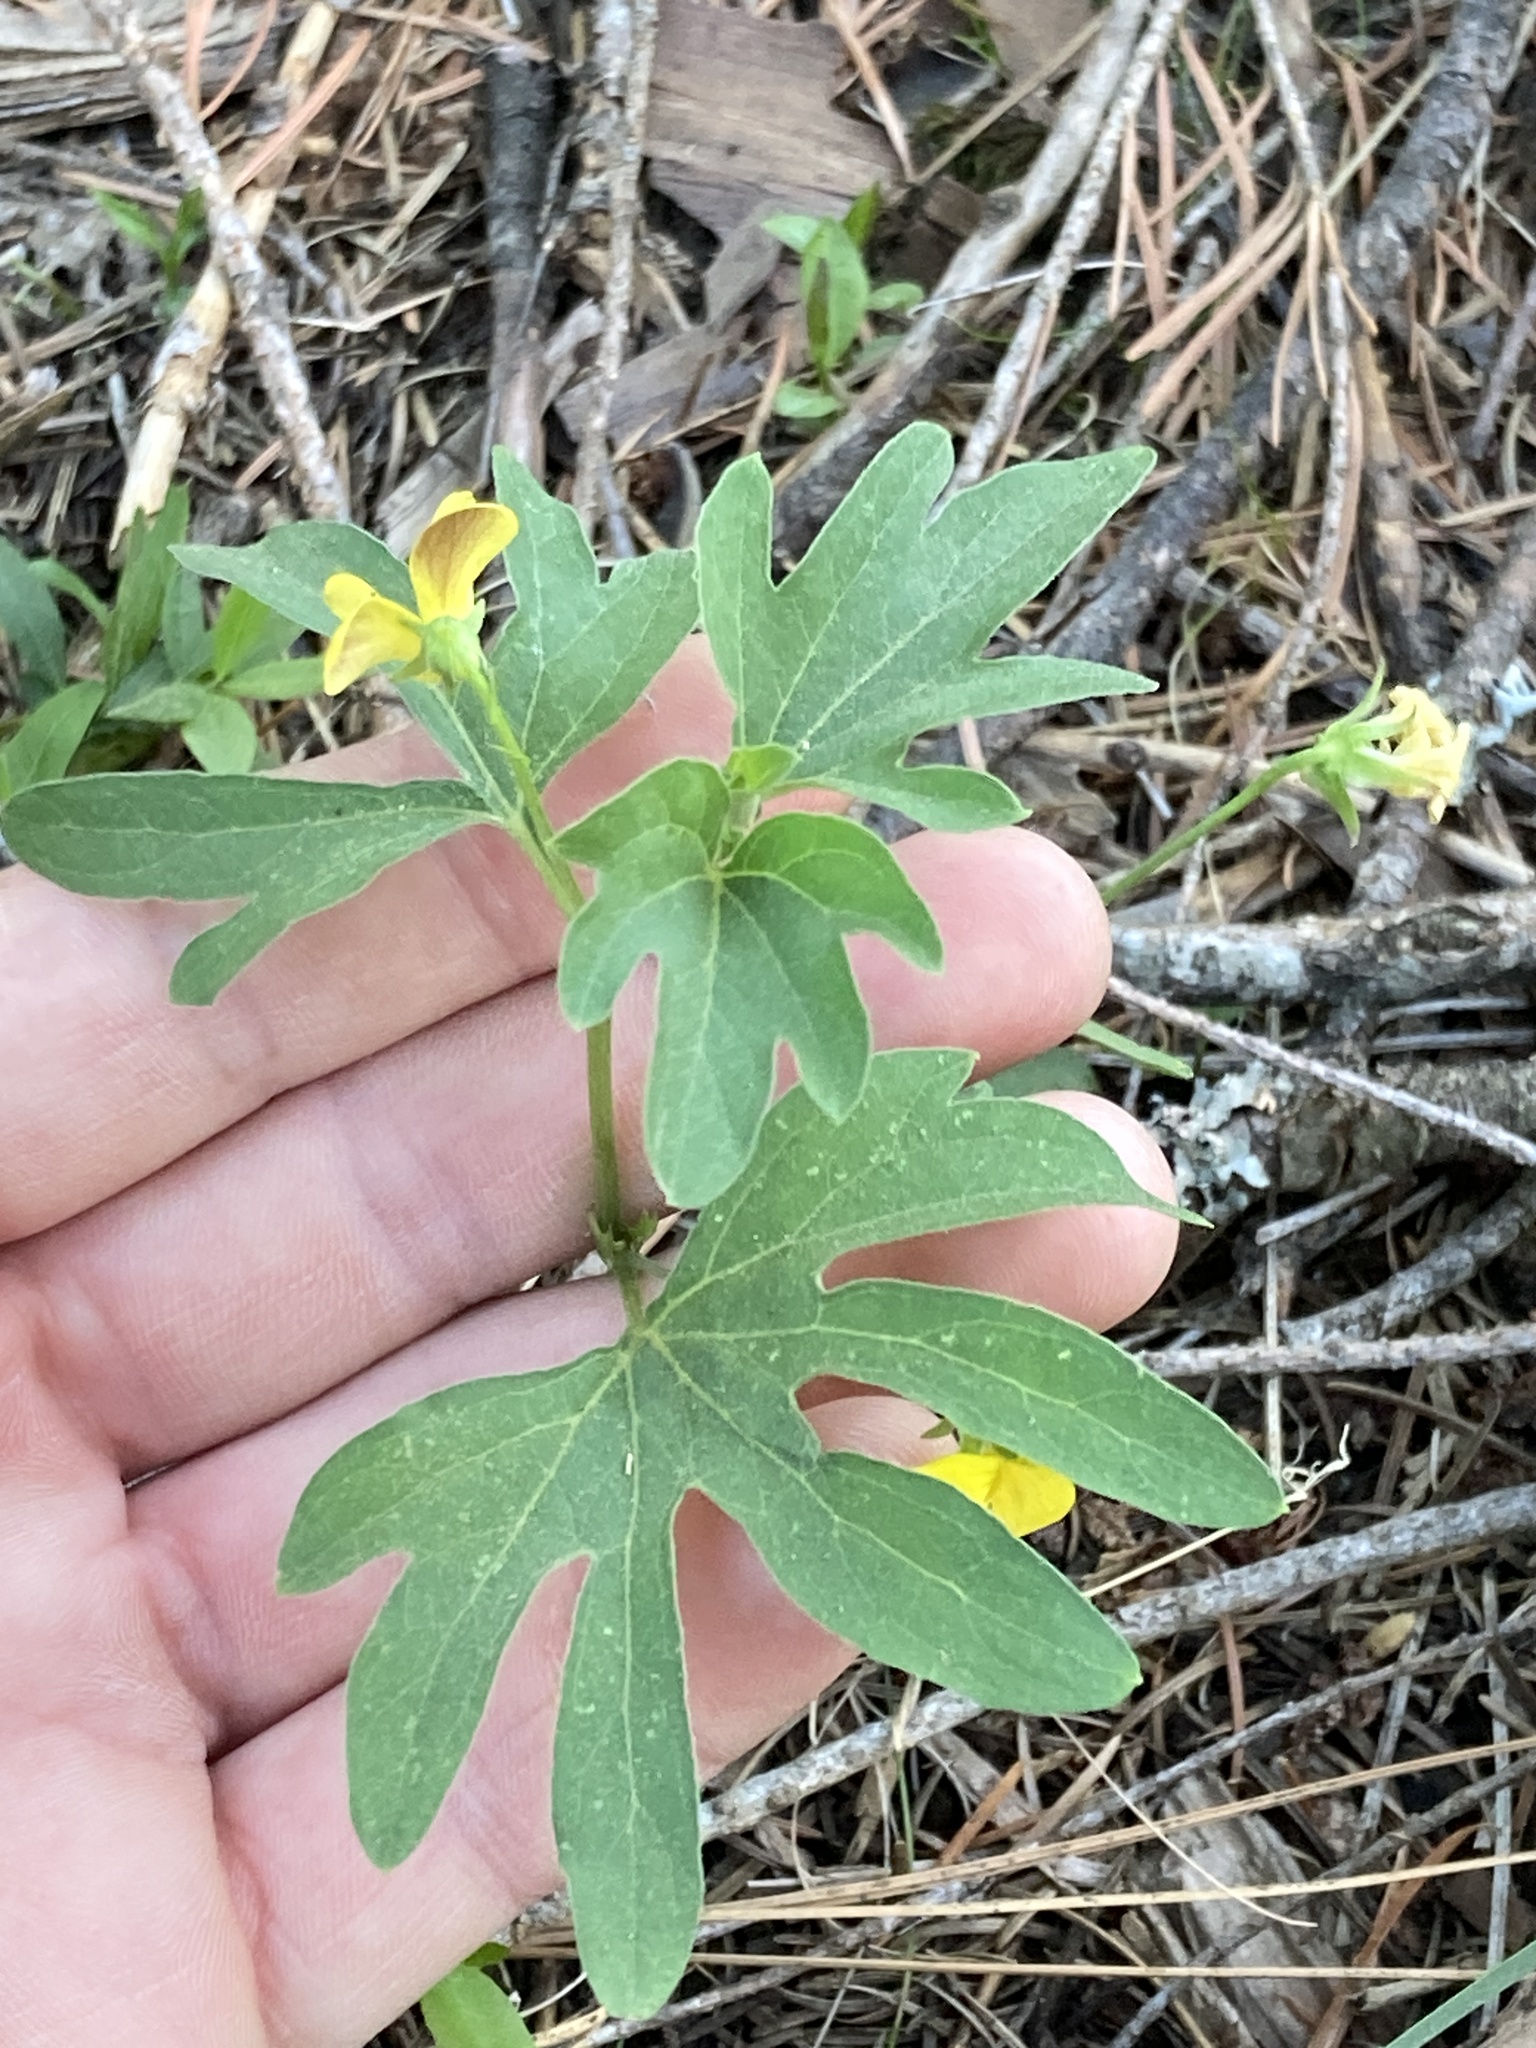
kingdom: Plantae
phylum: Tracheophyta
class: Magnoliopsida
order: Malpighiales
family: Violaceae
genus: Viola
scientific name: Viola lobata
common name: Pine violet
